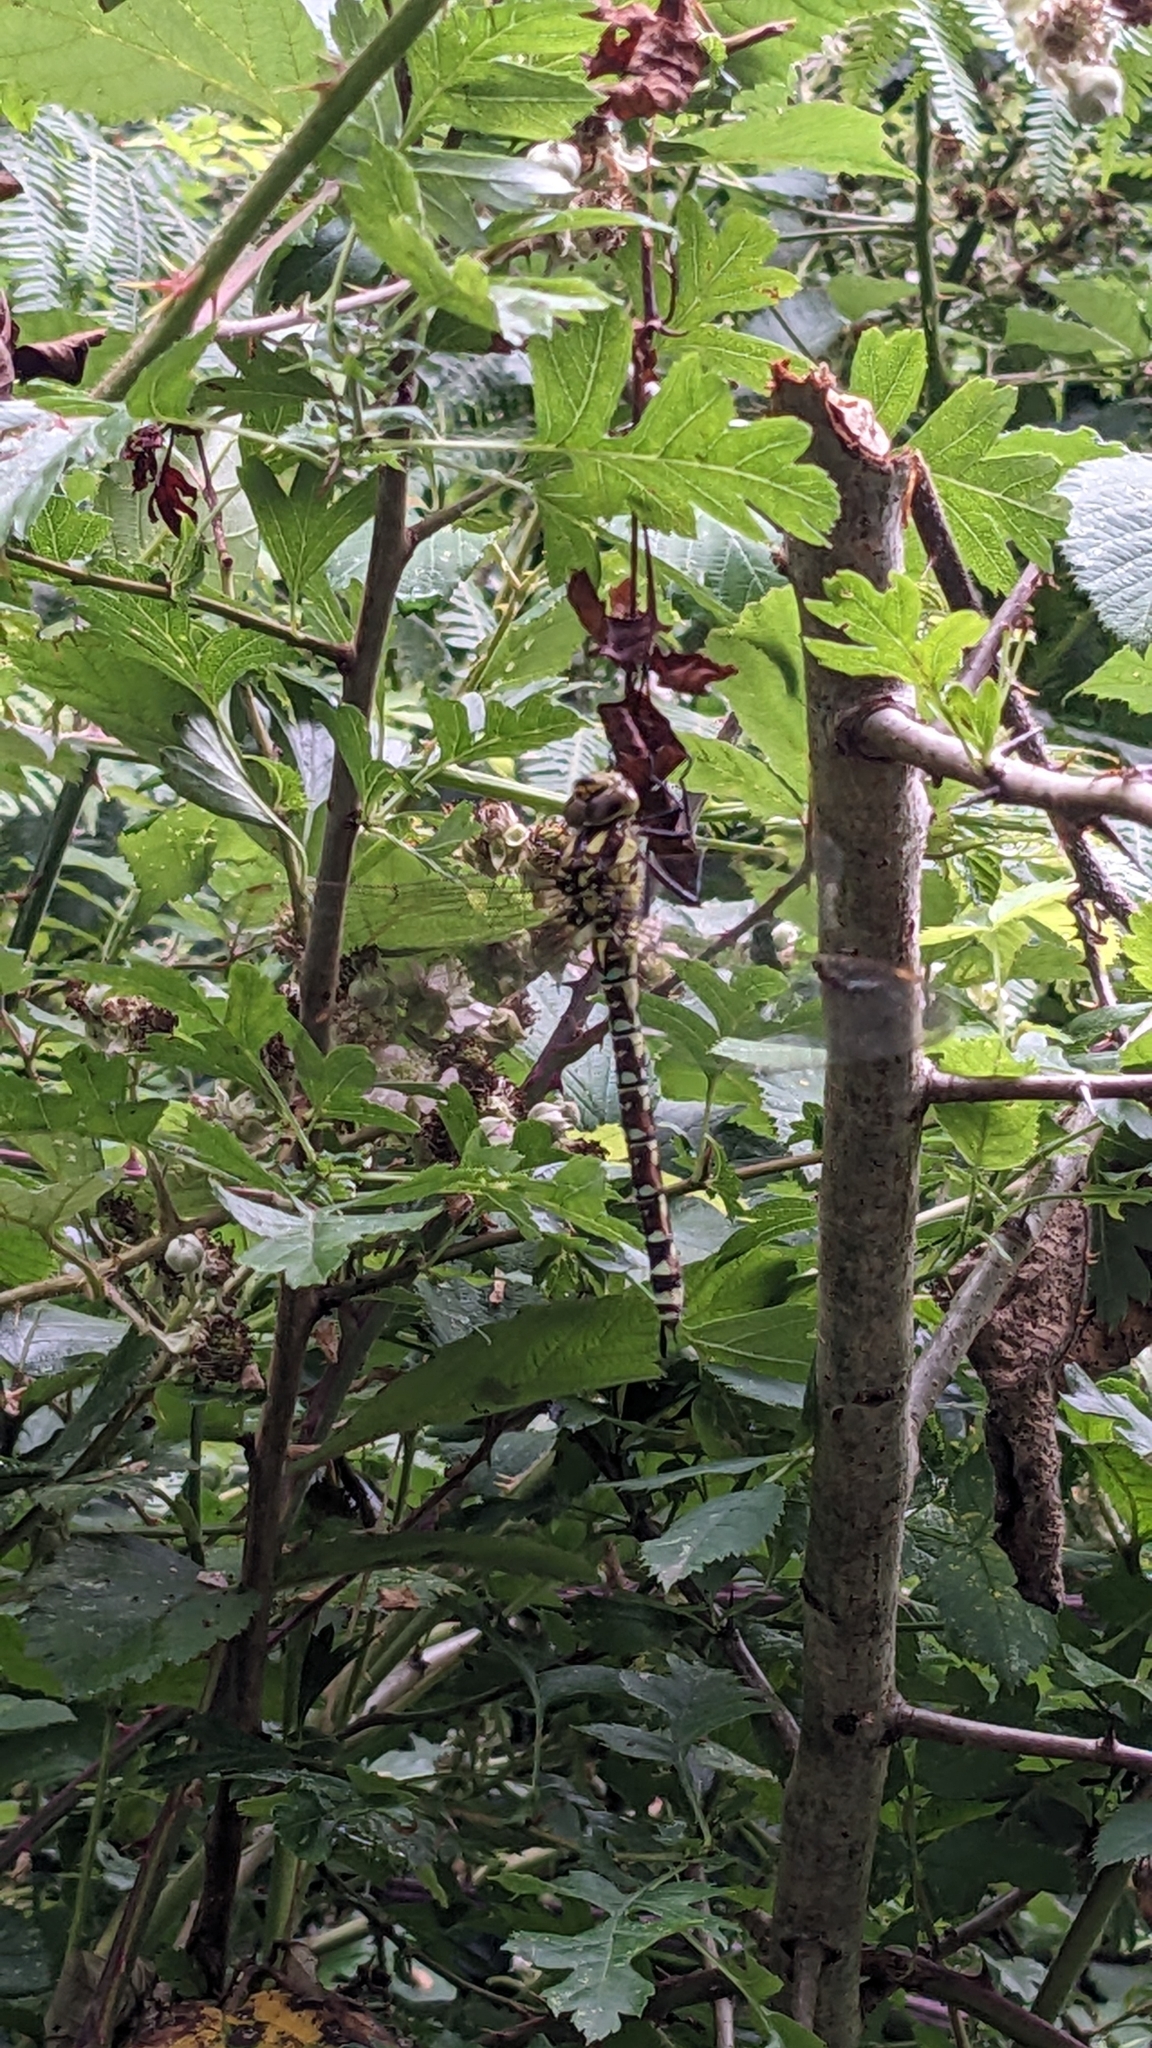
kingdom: Animalia
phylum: Arthropoda
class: Insecta
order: Odonata
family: Aeshnidae
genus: Aeshna
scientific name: Aeshna cyanea
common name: Southern hawker
